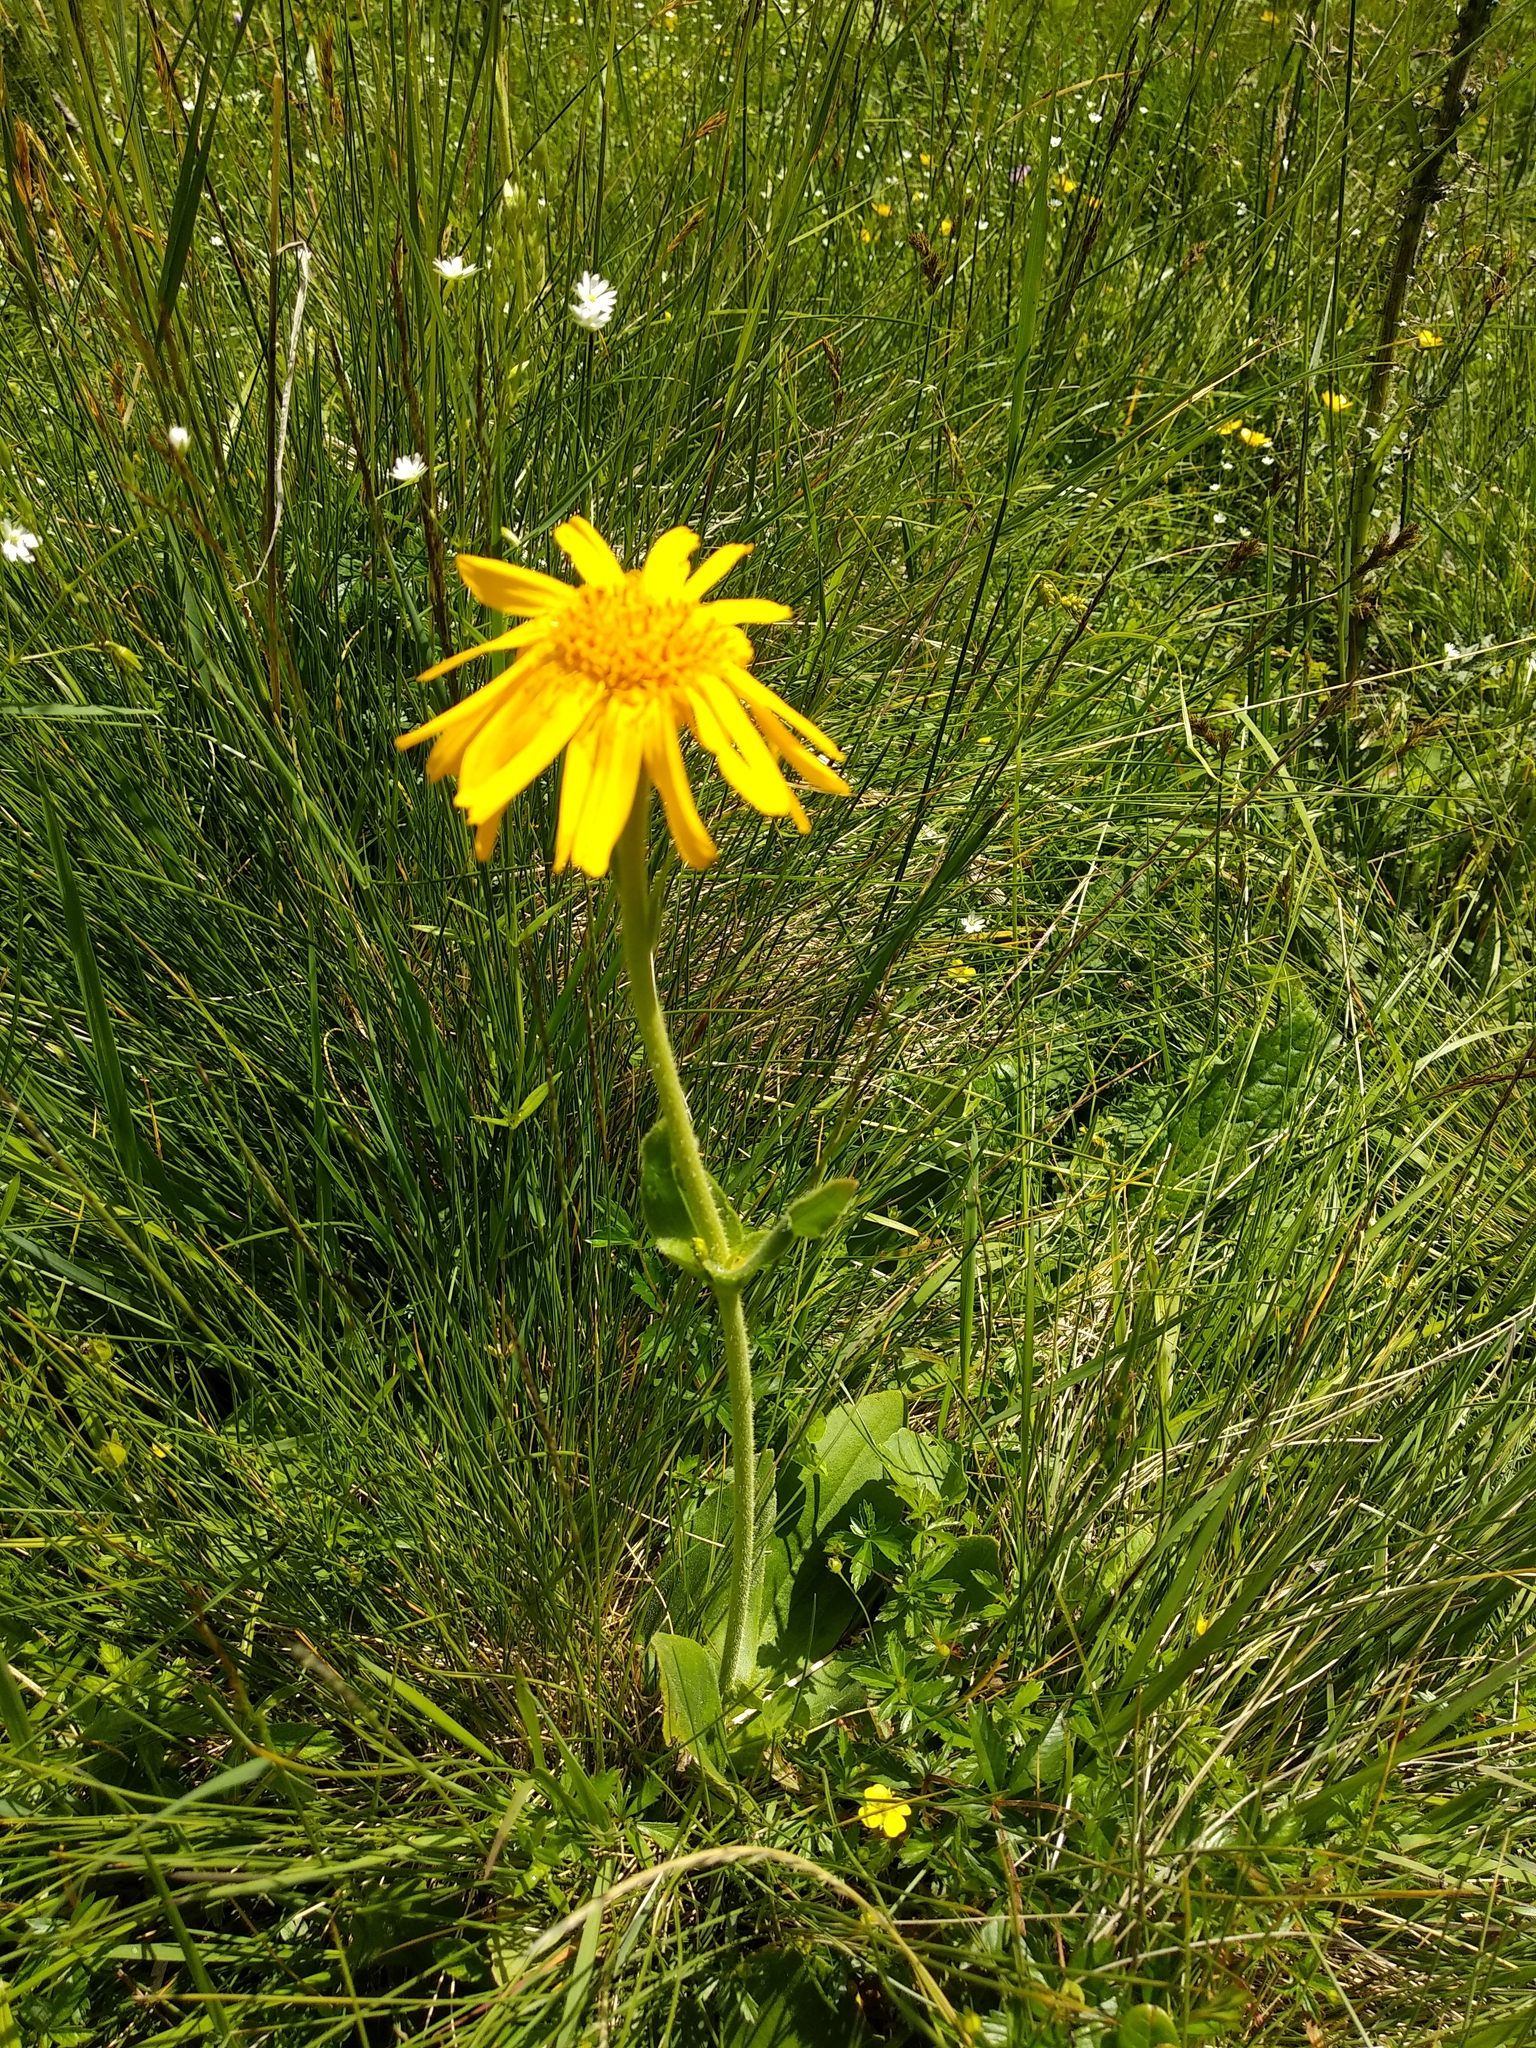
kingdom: Plantae
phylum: Tracheophyta
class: Magnoliopsida
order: Asterales
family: Asteraceae
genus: Arnica
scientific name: Arnica montana
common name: Leopard's bane
